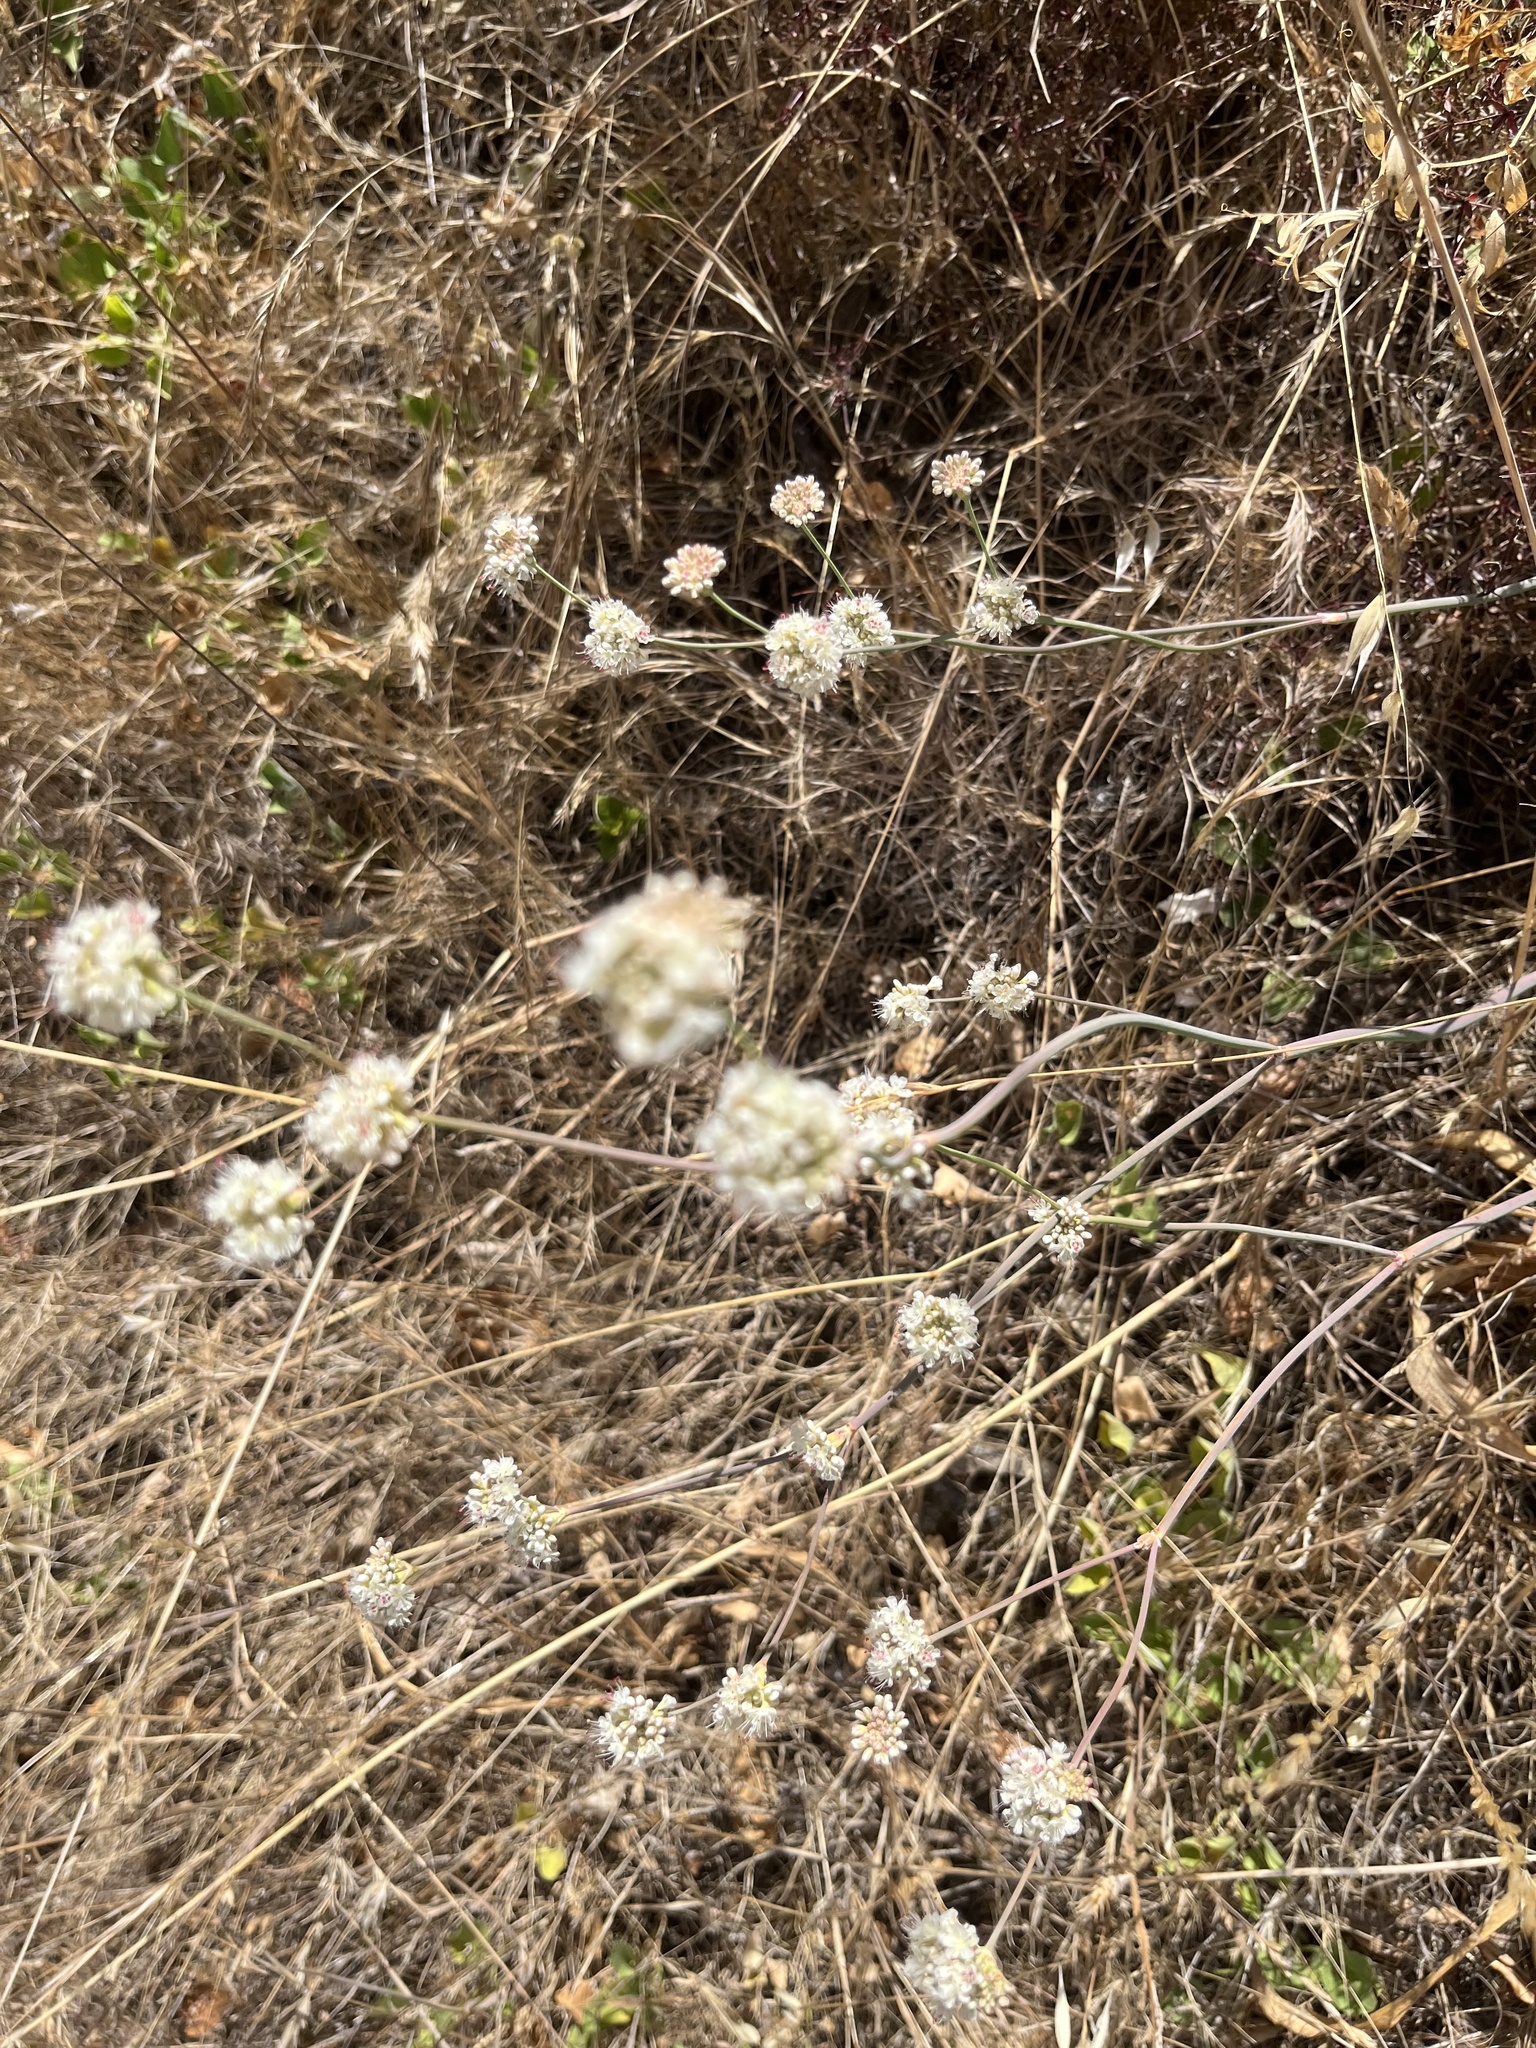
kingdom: Plantae
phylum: Tracheophyta
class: Magnoliopsida
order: Caryophyllales
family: Polygonaceae
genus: Eriogonum
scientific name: Eriogonum nudum
